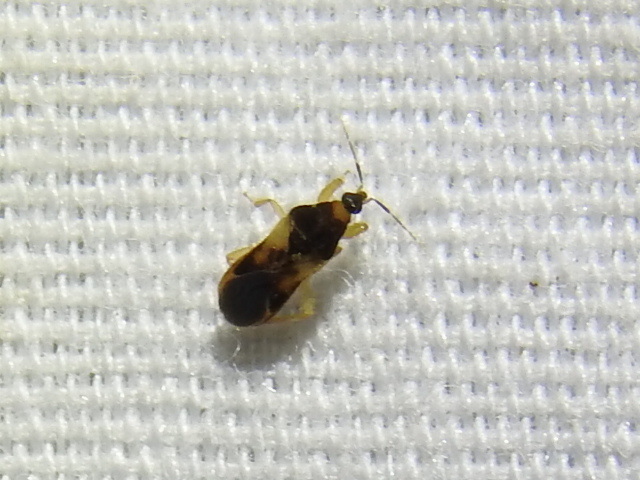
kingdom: Animalia
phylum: Arthropoda
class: Insecta
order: Hemiptera
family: Nabidae
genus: Phorticus
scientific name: Phorticus collaris
